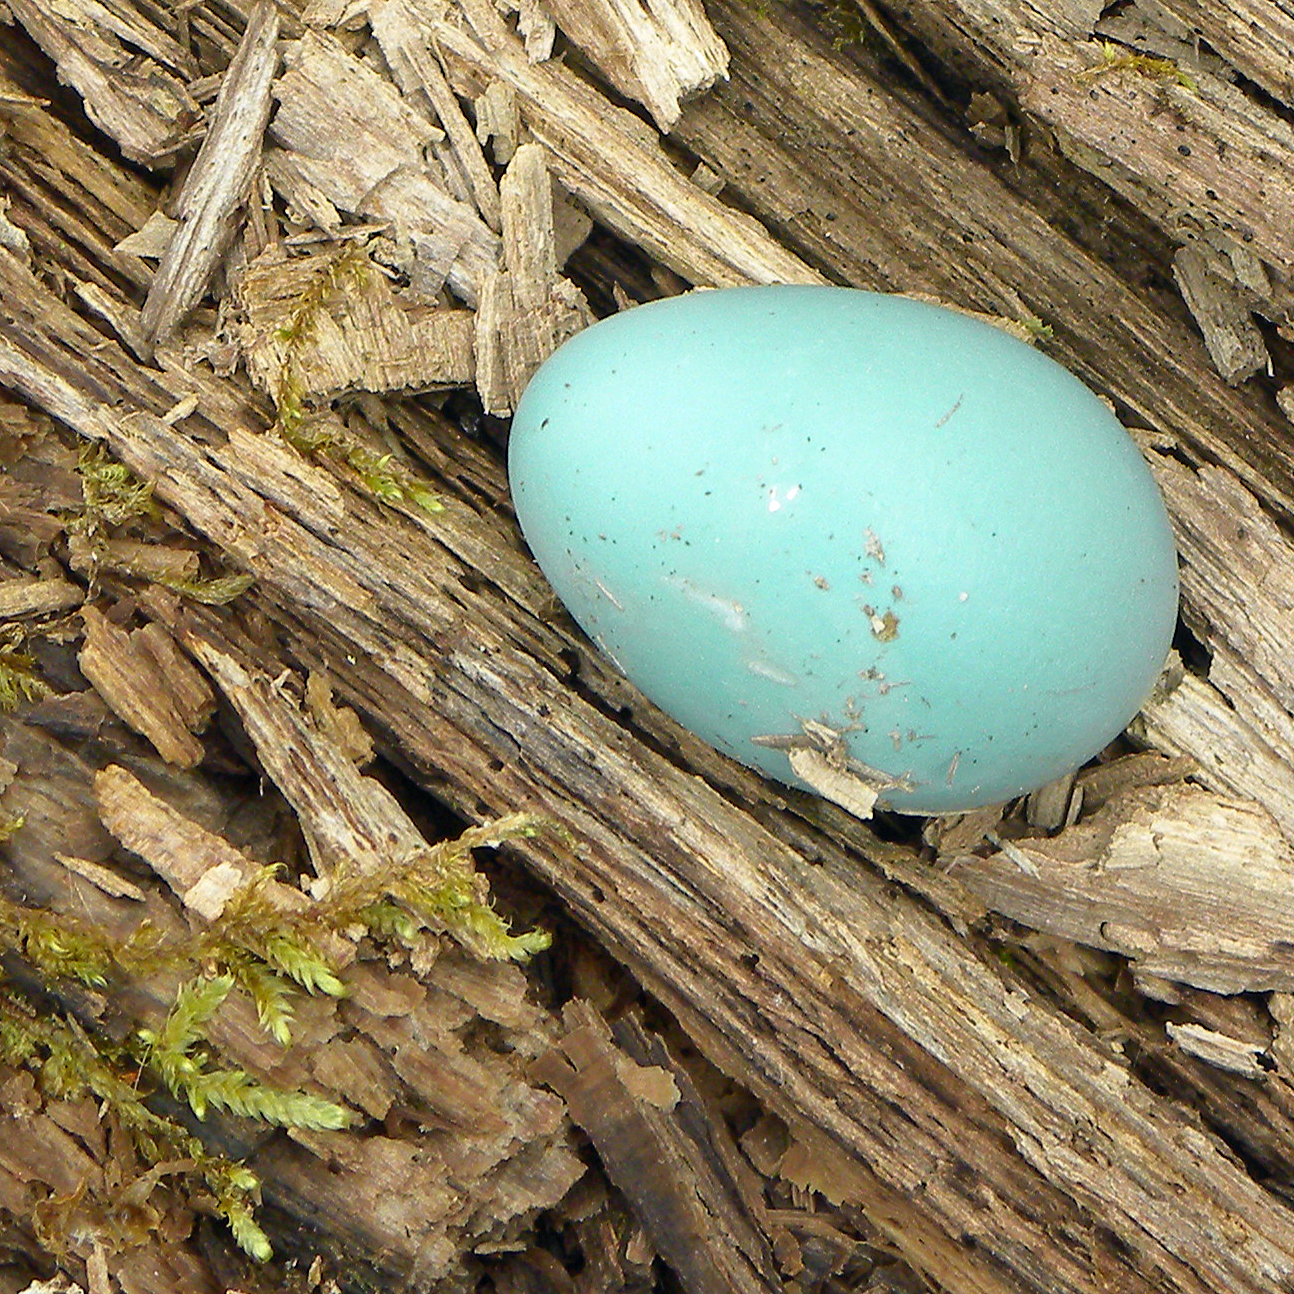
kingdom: Animalia
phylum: Chordata
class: Aves
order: Passeriformes
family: Turdidae
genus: Turdus
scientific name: Turdus migratorius
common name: American robin
